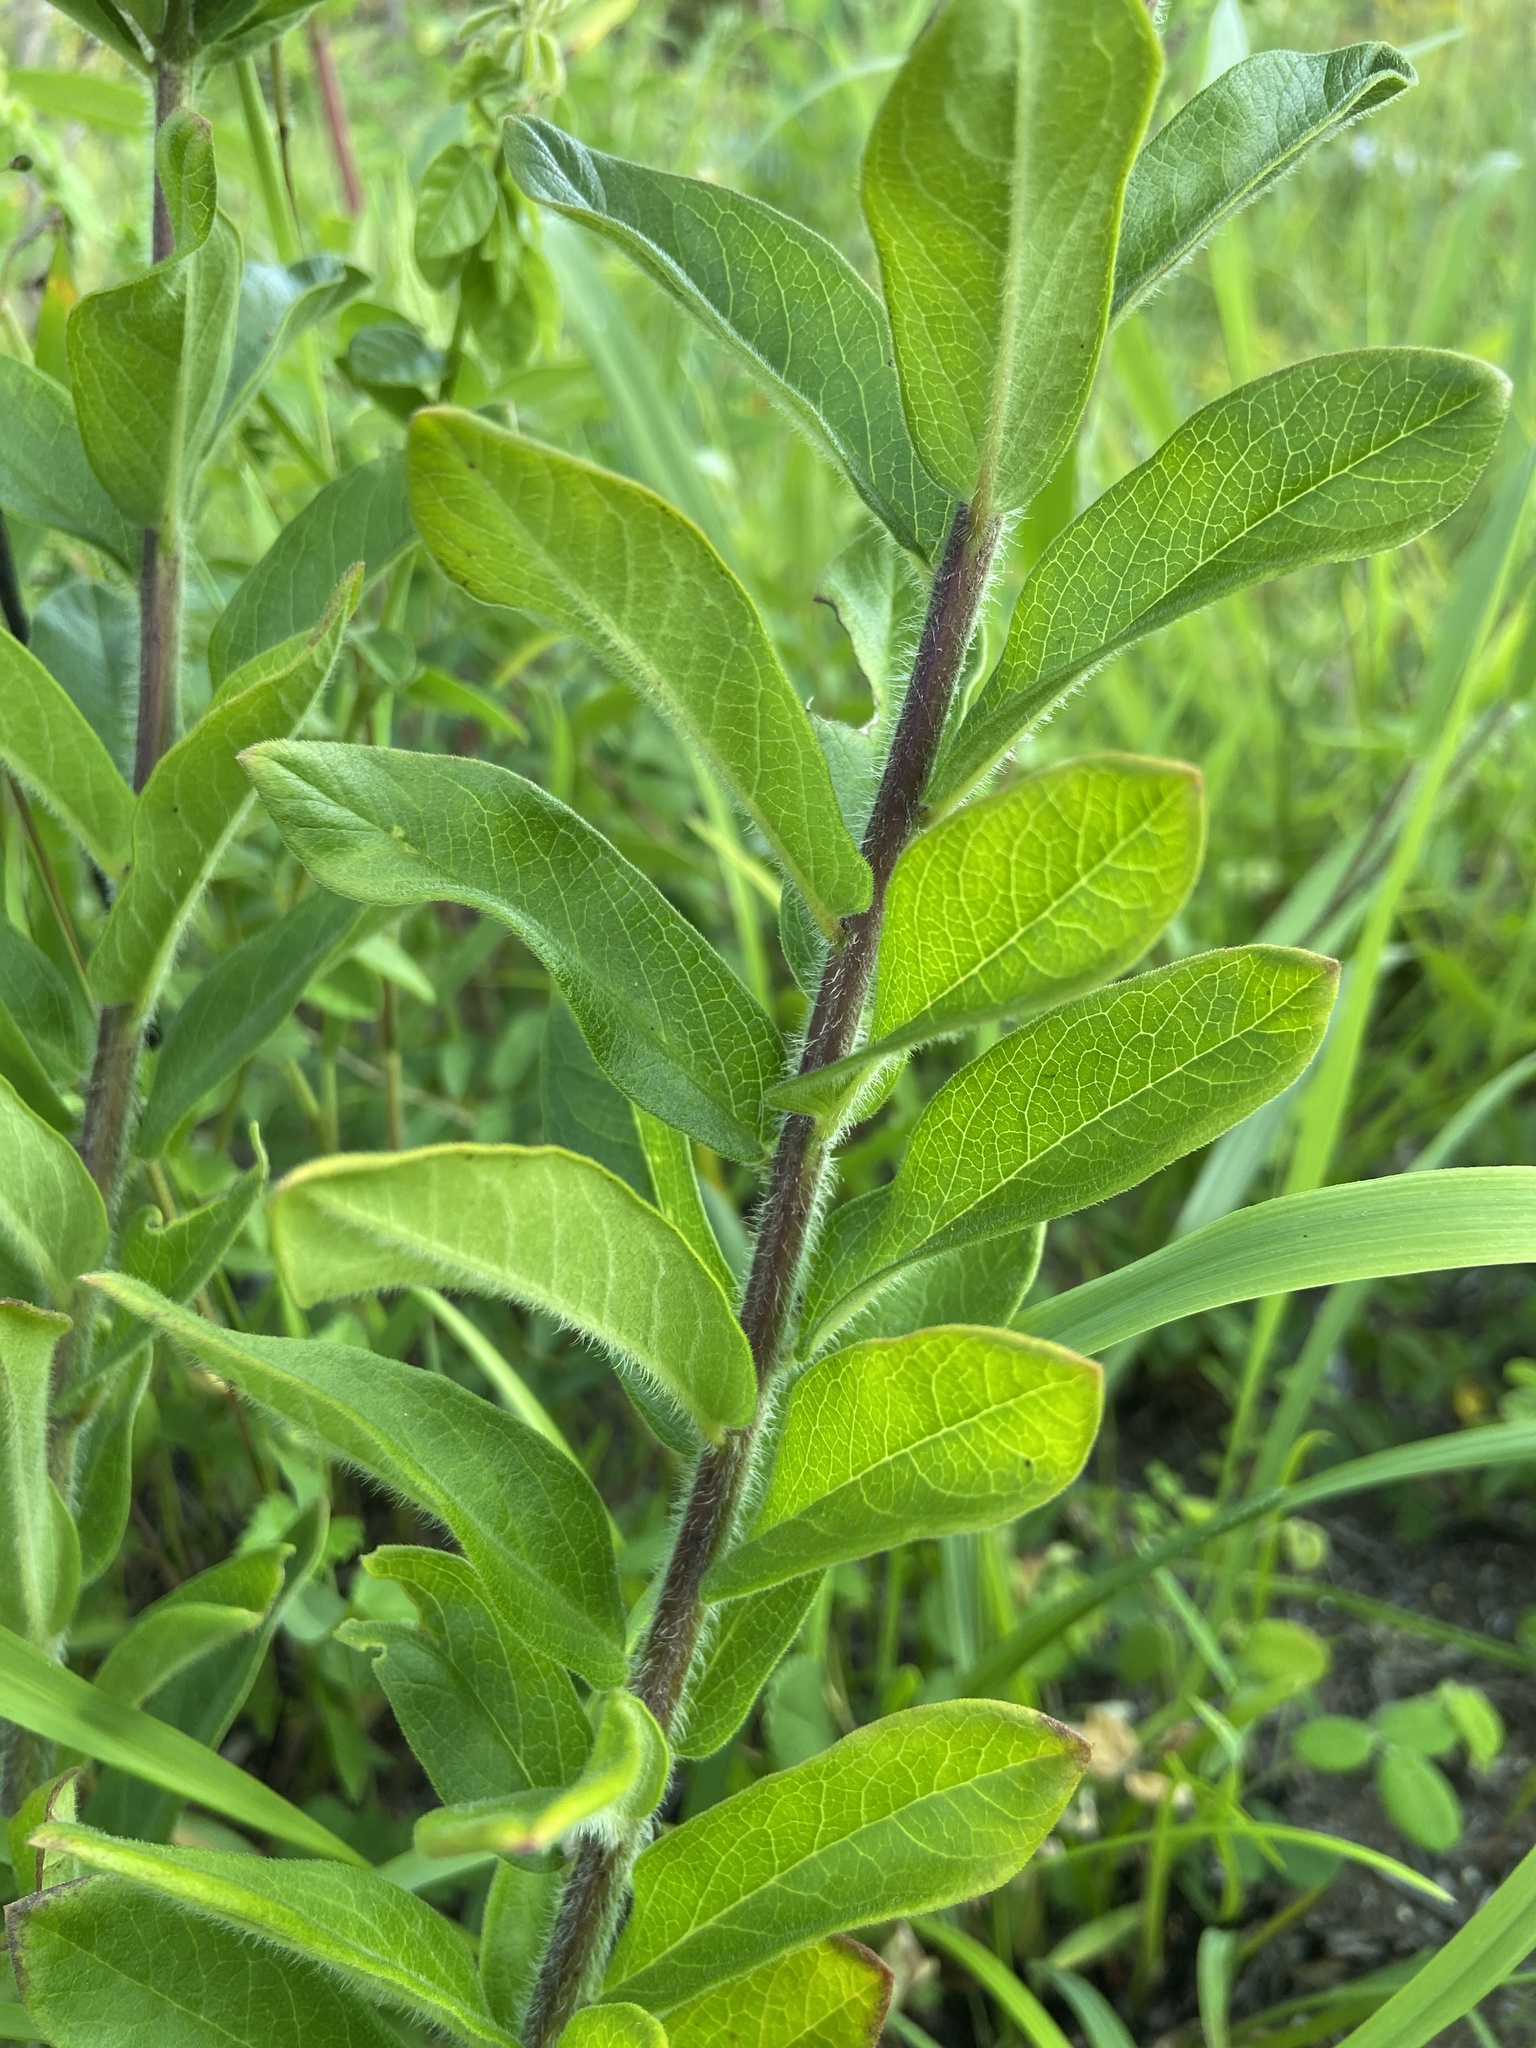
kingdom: Plantae
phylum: Tracheophyta
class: Magnoliopsida
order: Gentianales
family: Apocynaceae
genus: Asclepias
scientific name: Asclepias tuberosa
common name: Butterfly milkweed
